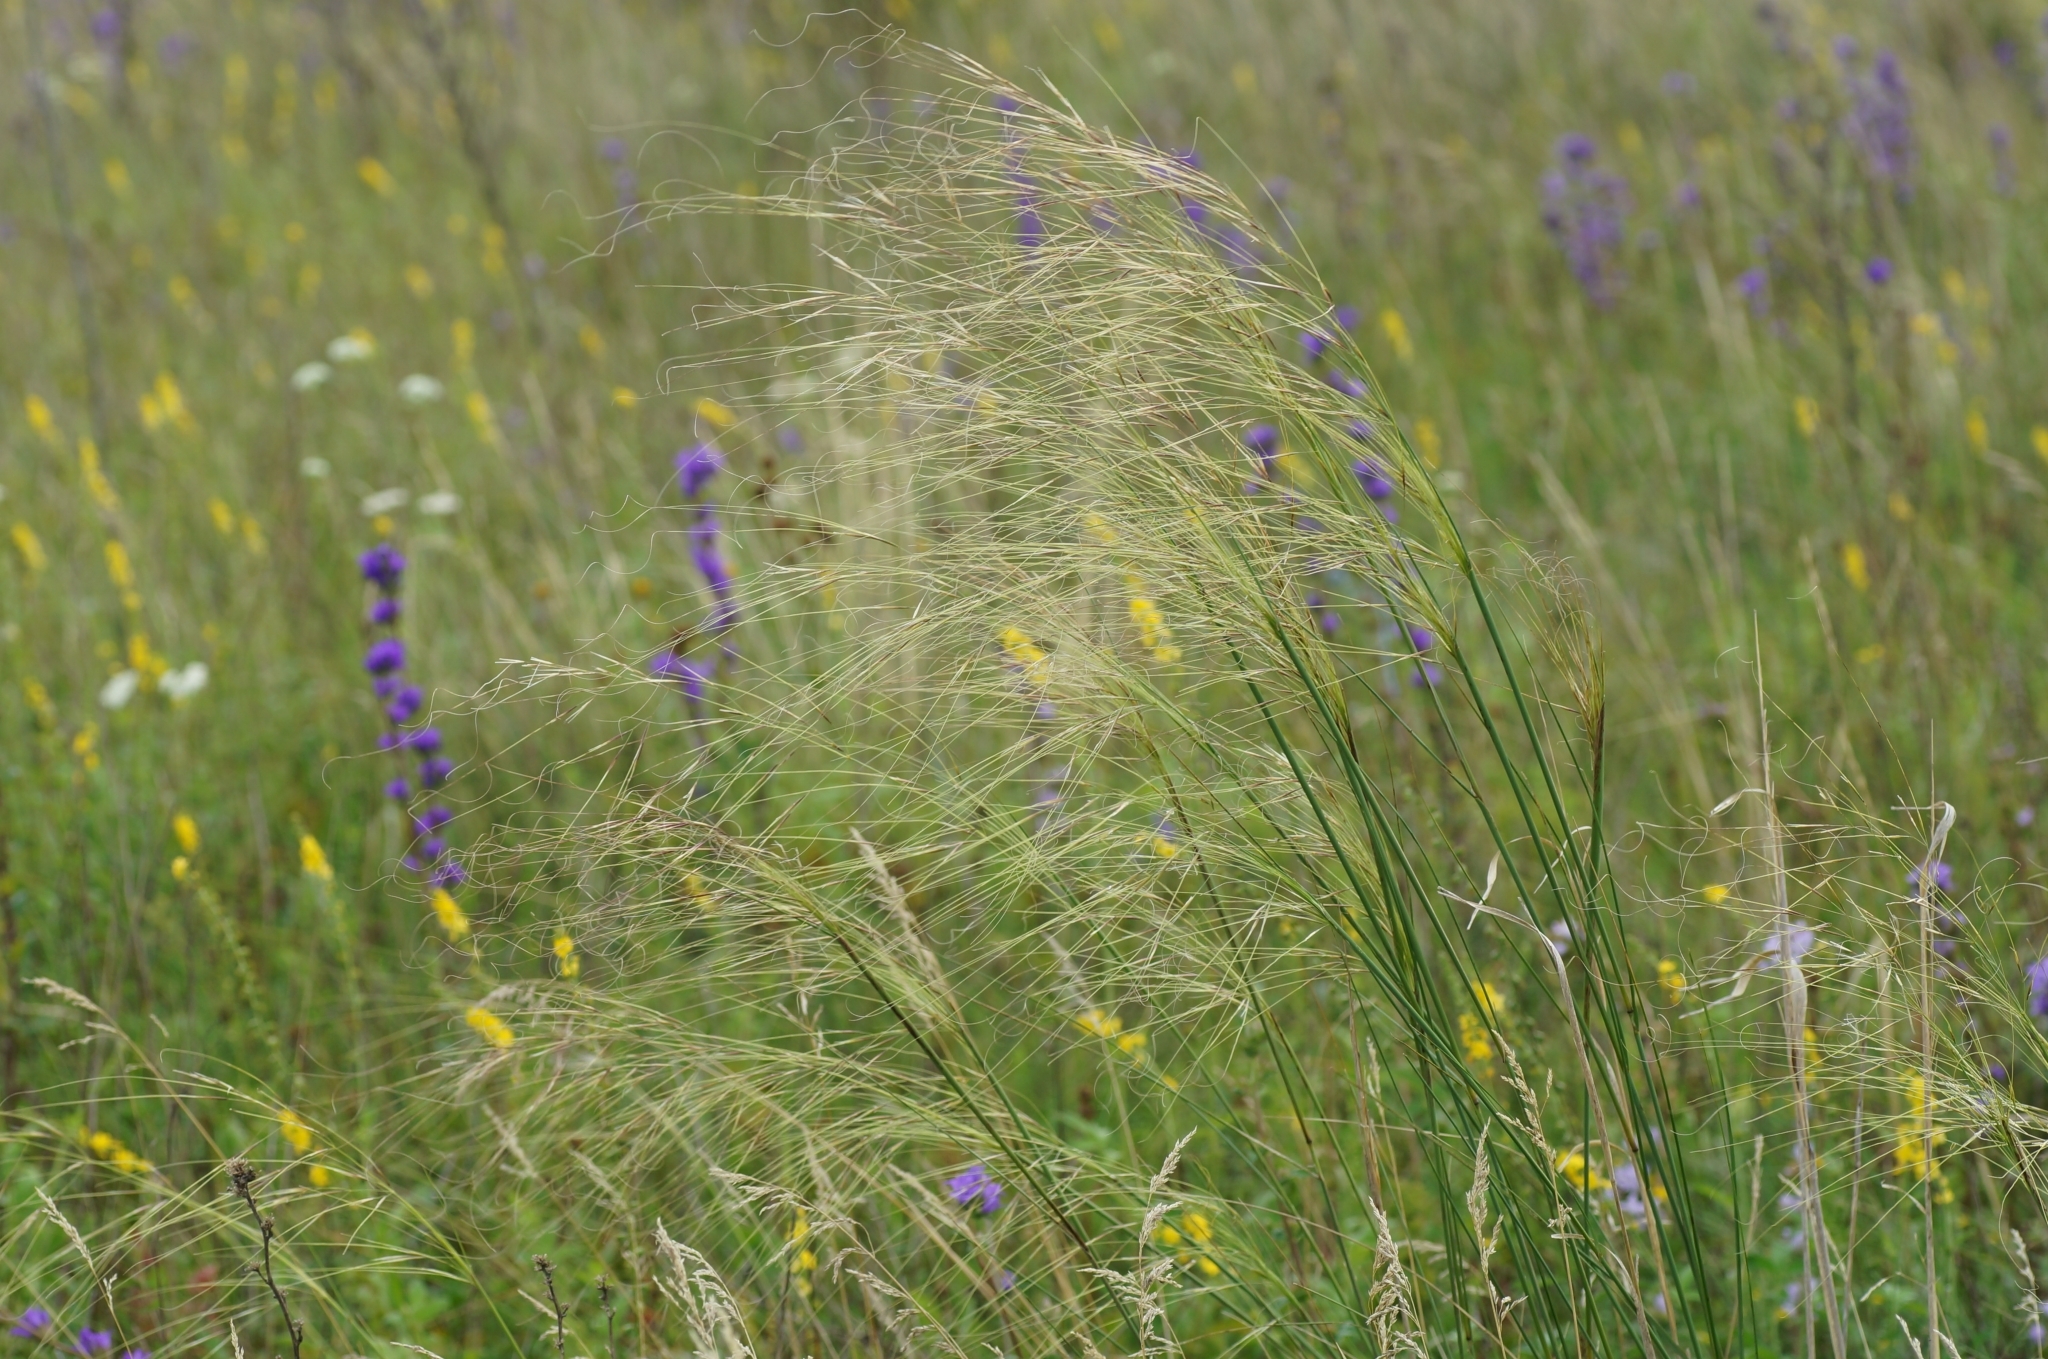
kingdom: Plantae
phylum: Tracheophyta
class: Liliopsida
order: Poales
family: Poaceae
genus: Stipa
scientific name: Stipa capillata
